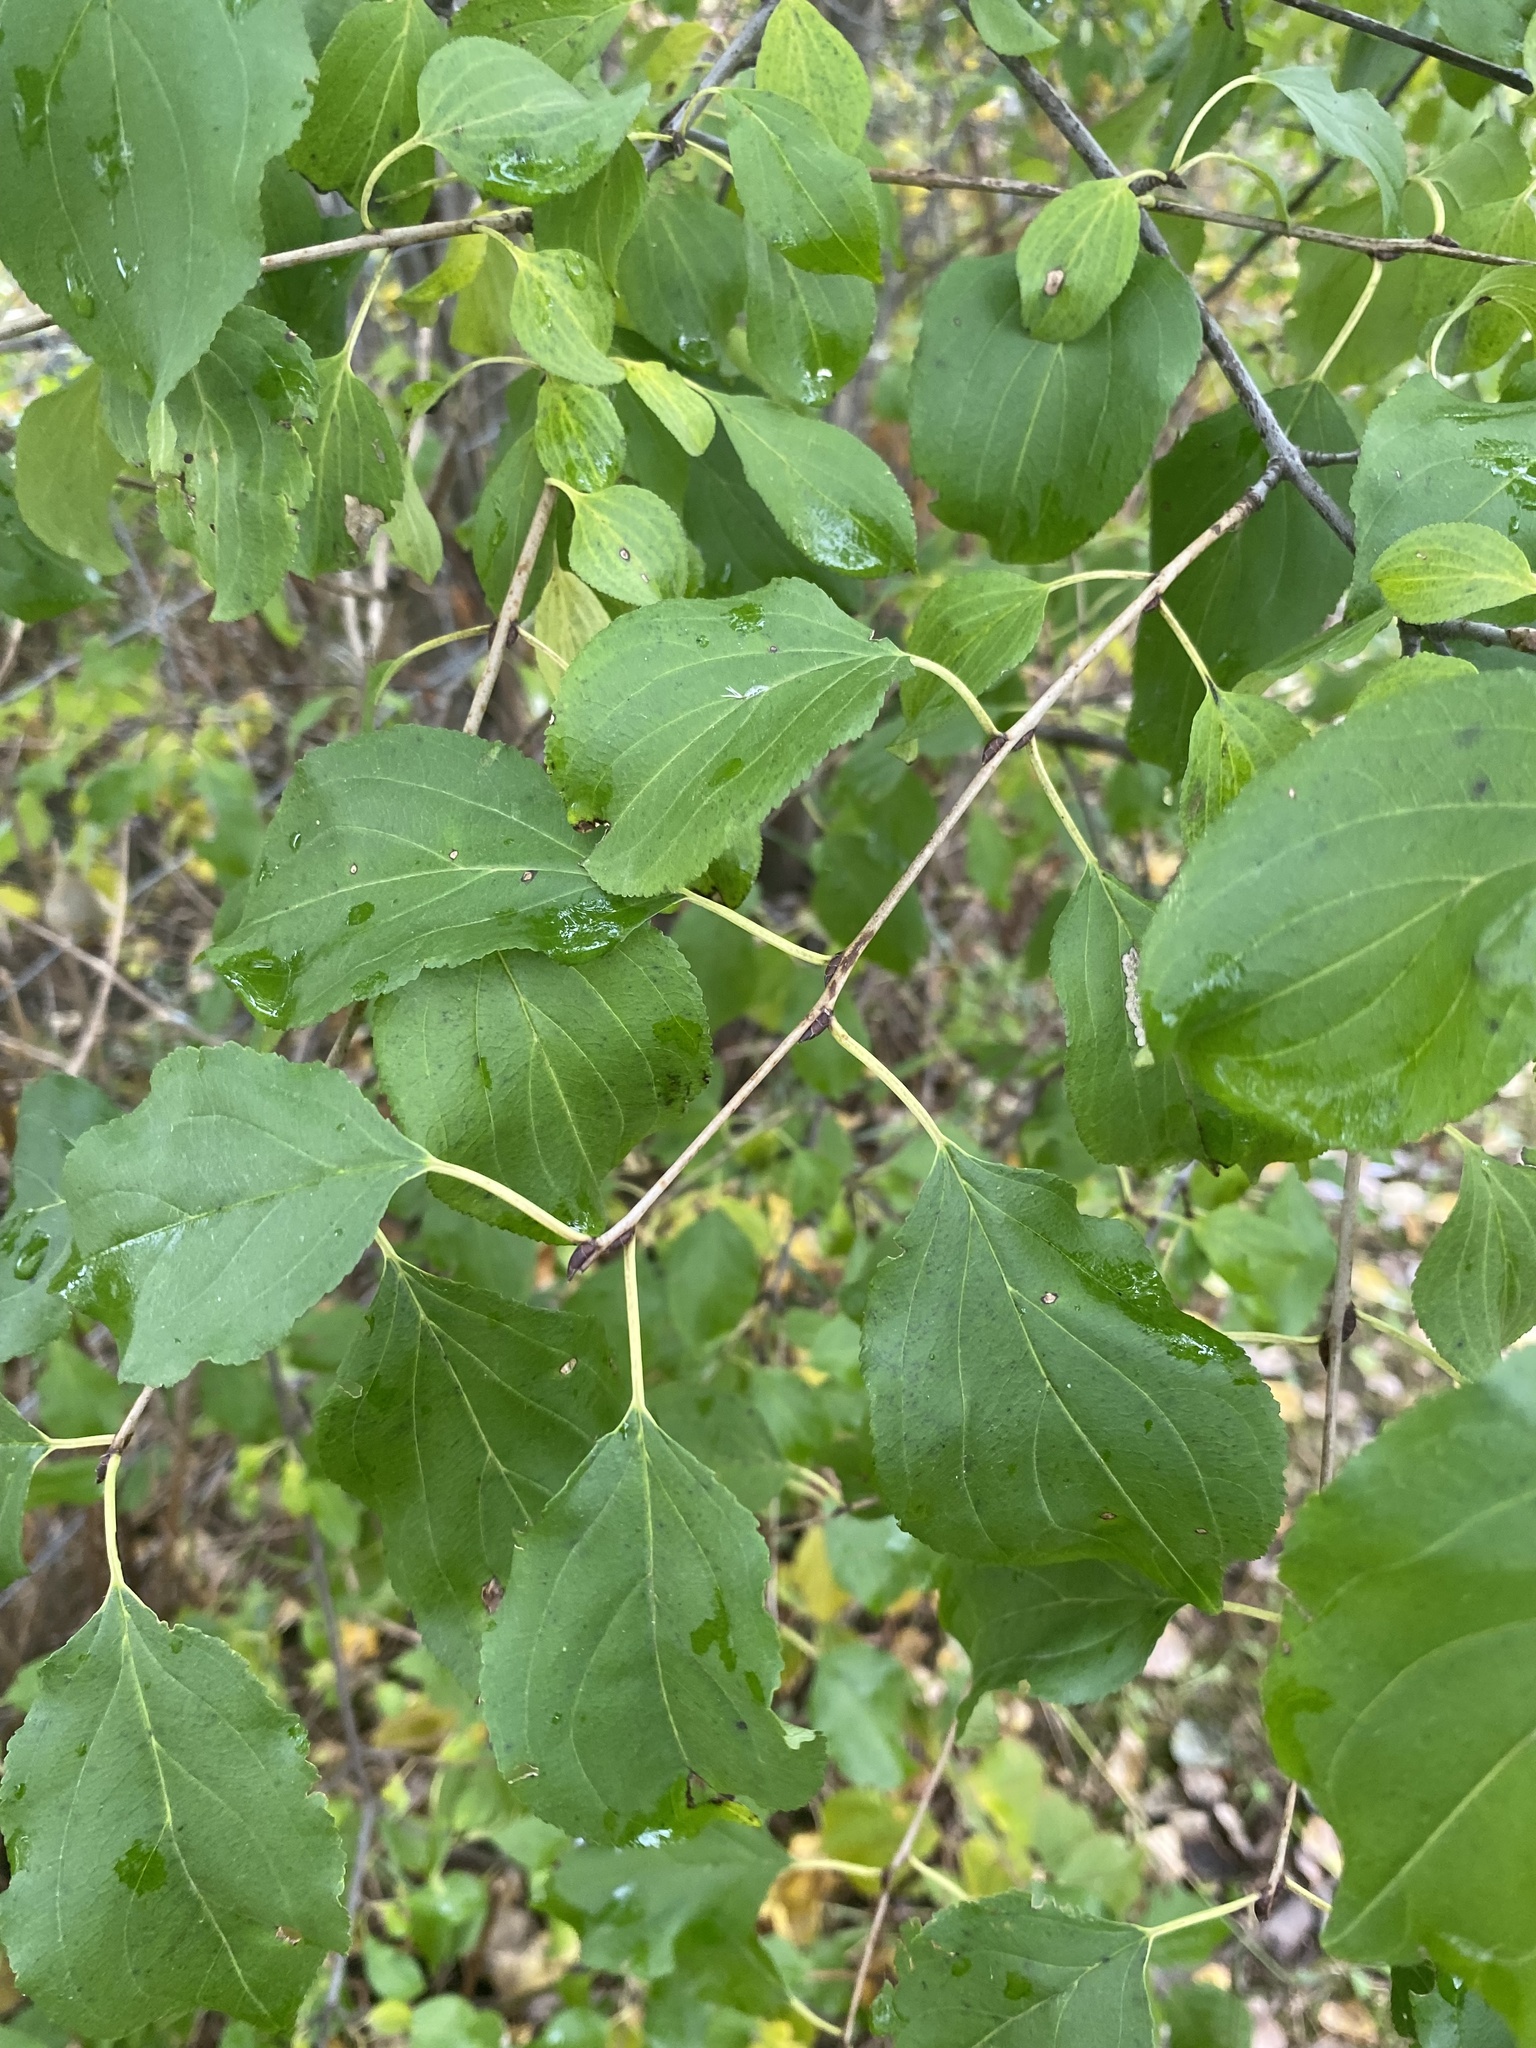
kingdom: Plantae
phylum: Tracheophyta
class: Magnoliopsida
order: Rosales
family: Rhamnaceae
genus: Rhamnus
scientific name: Rhamnus cathartica
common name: Common buckthorn
